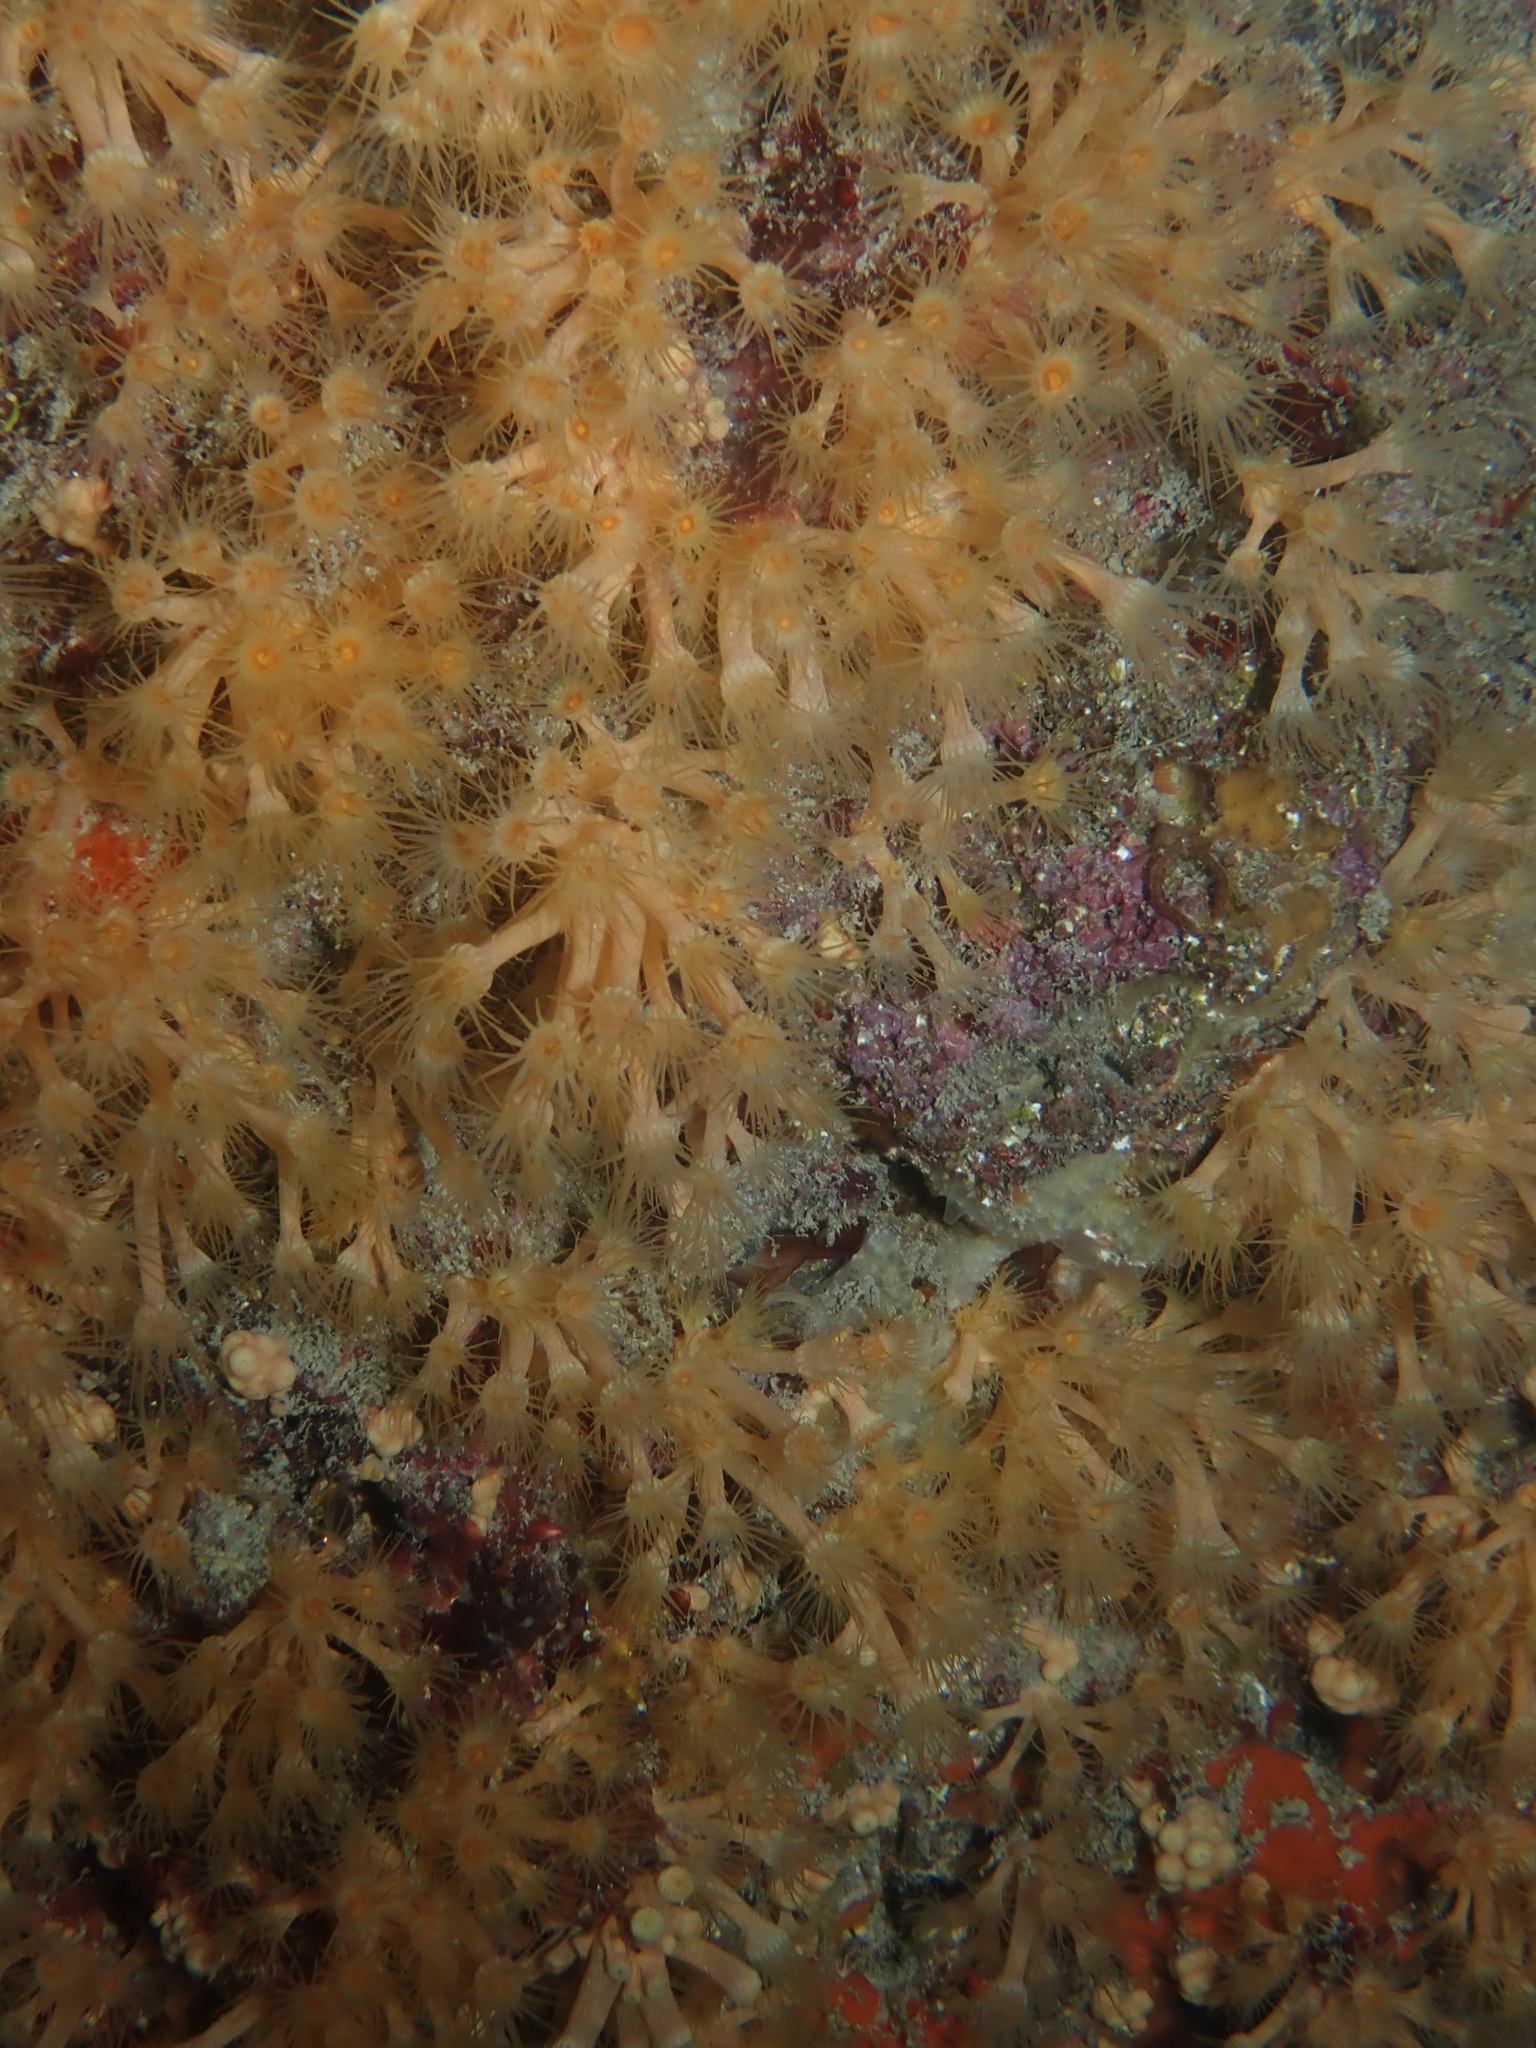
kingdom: Animalia
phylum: Cnidaria
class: Anthozoa
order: Zoantharia
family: Parazoanthidae
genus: Parazoanthus
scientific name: Parazoanthus axinellae
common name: Yellow cluster anemone
